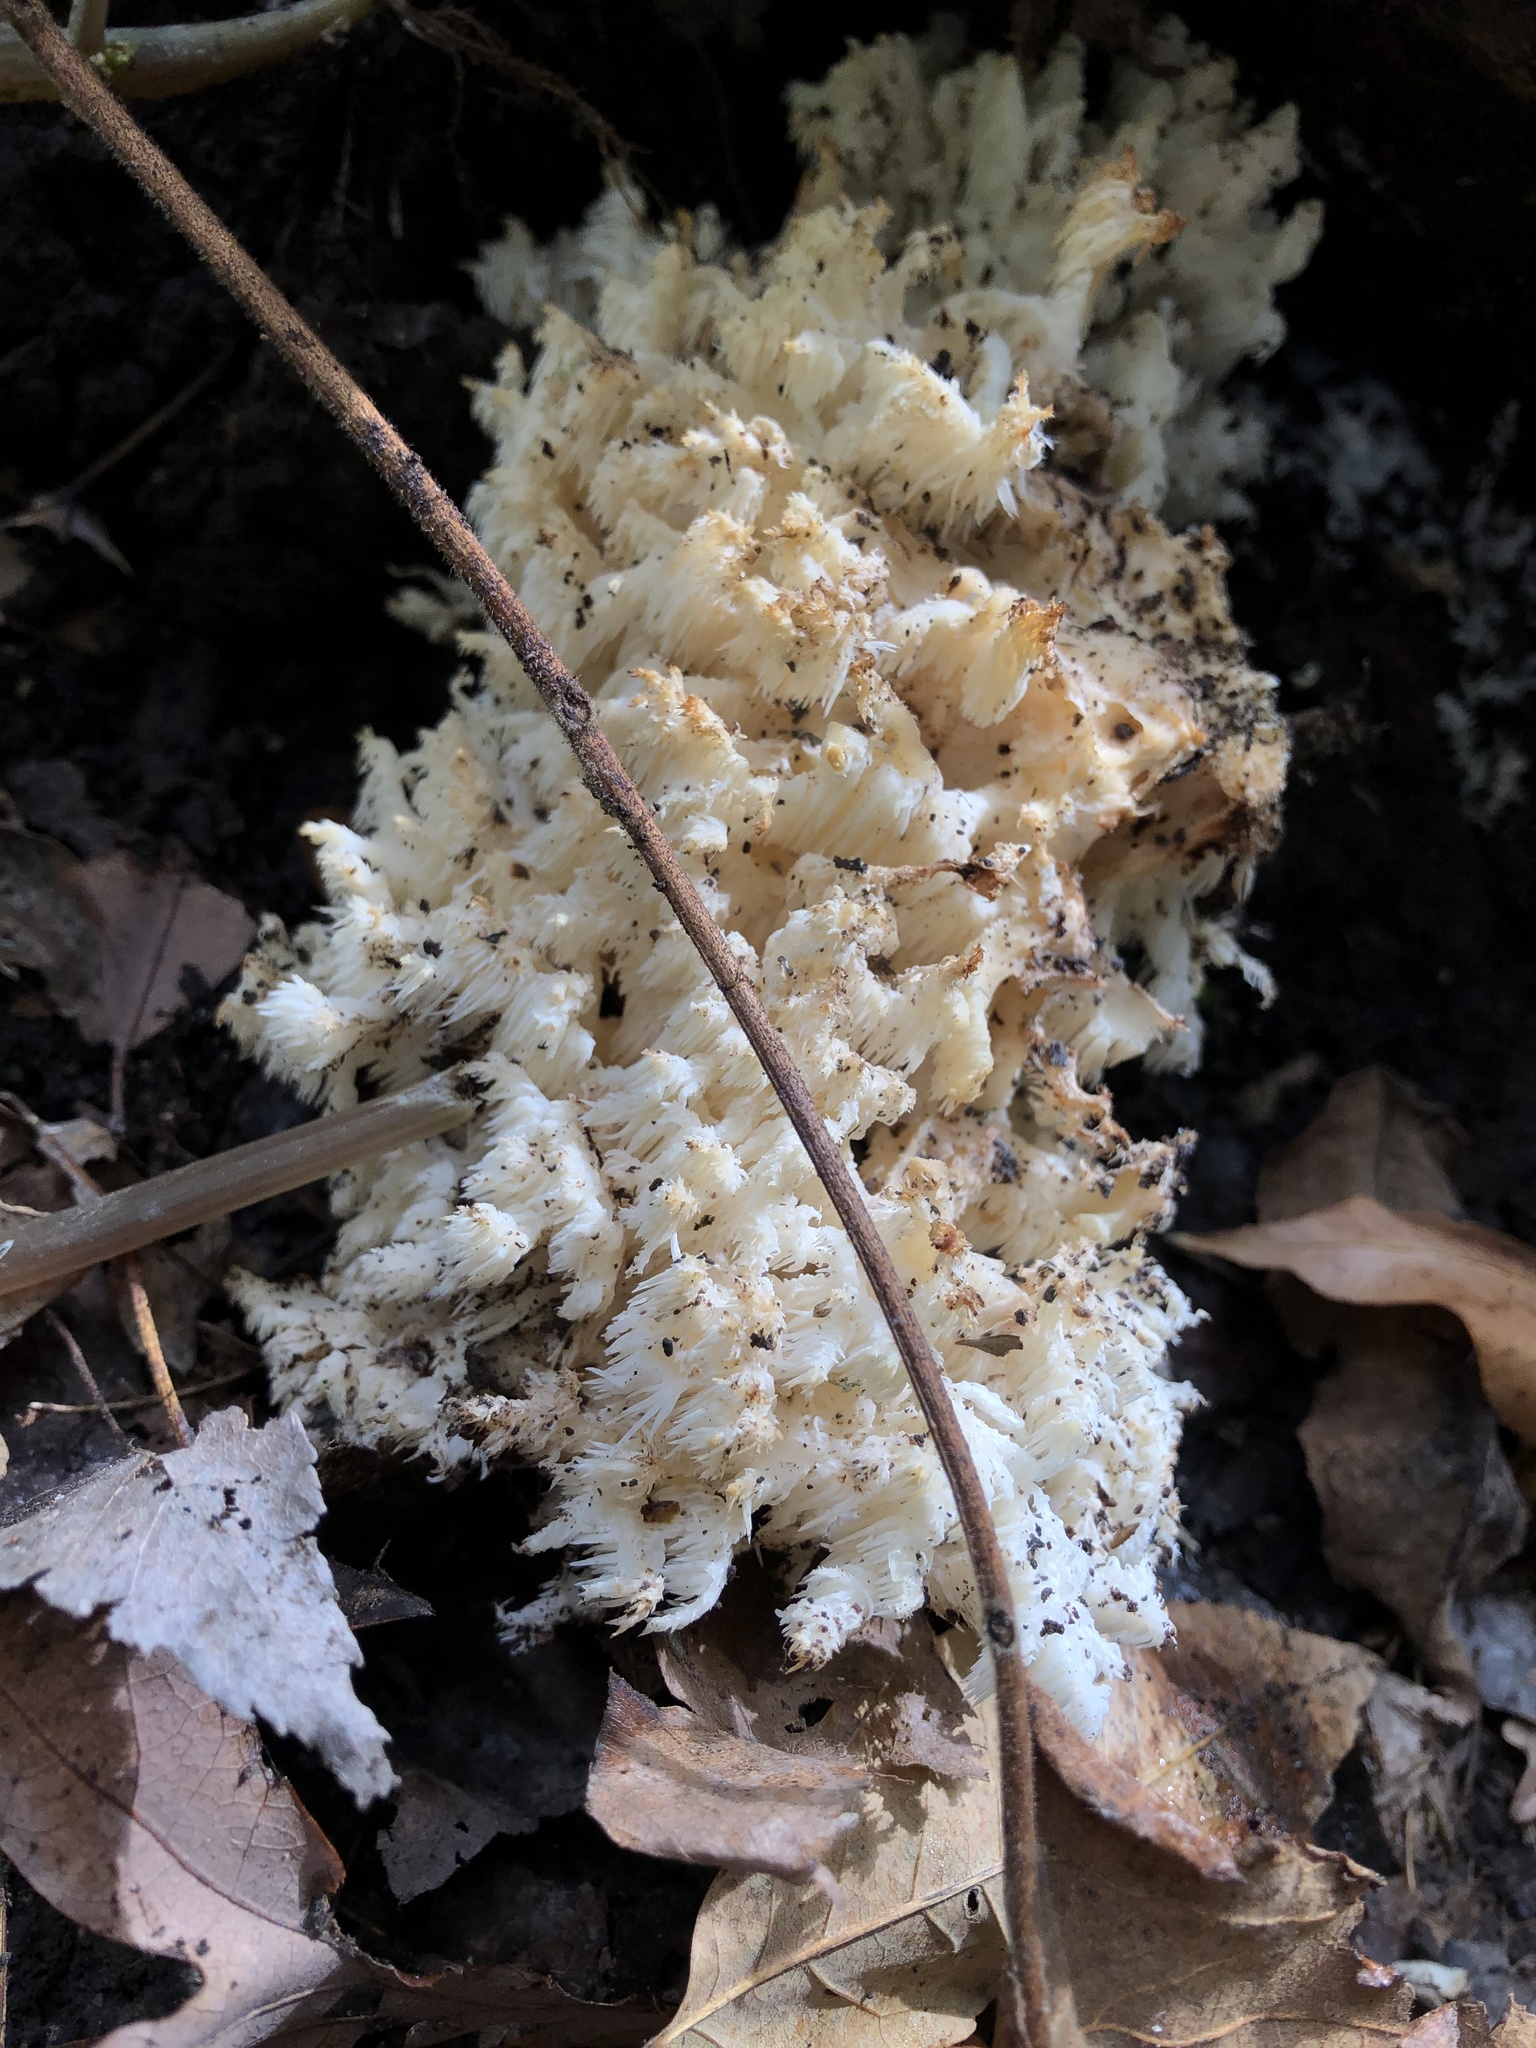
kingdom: Fungi
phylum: Basidiomycota
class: Agaricomycetes
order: Russulales
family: Hericiaceae
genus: Hericium
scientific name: Hericium coralloides
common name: Coral tooth
